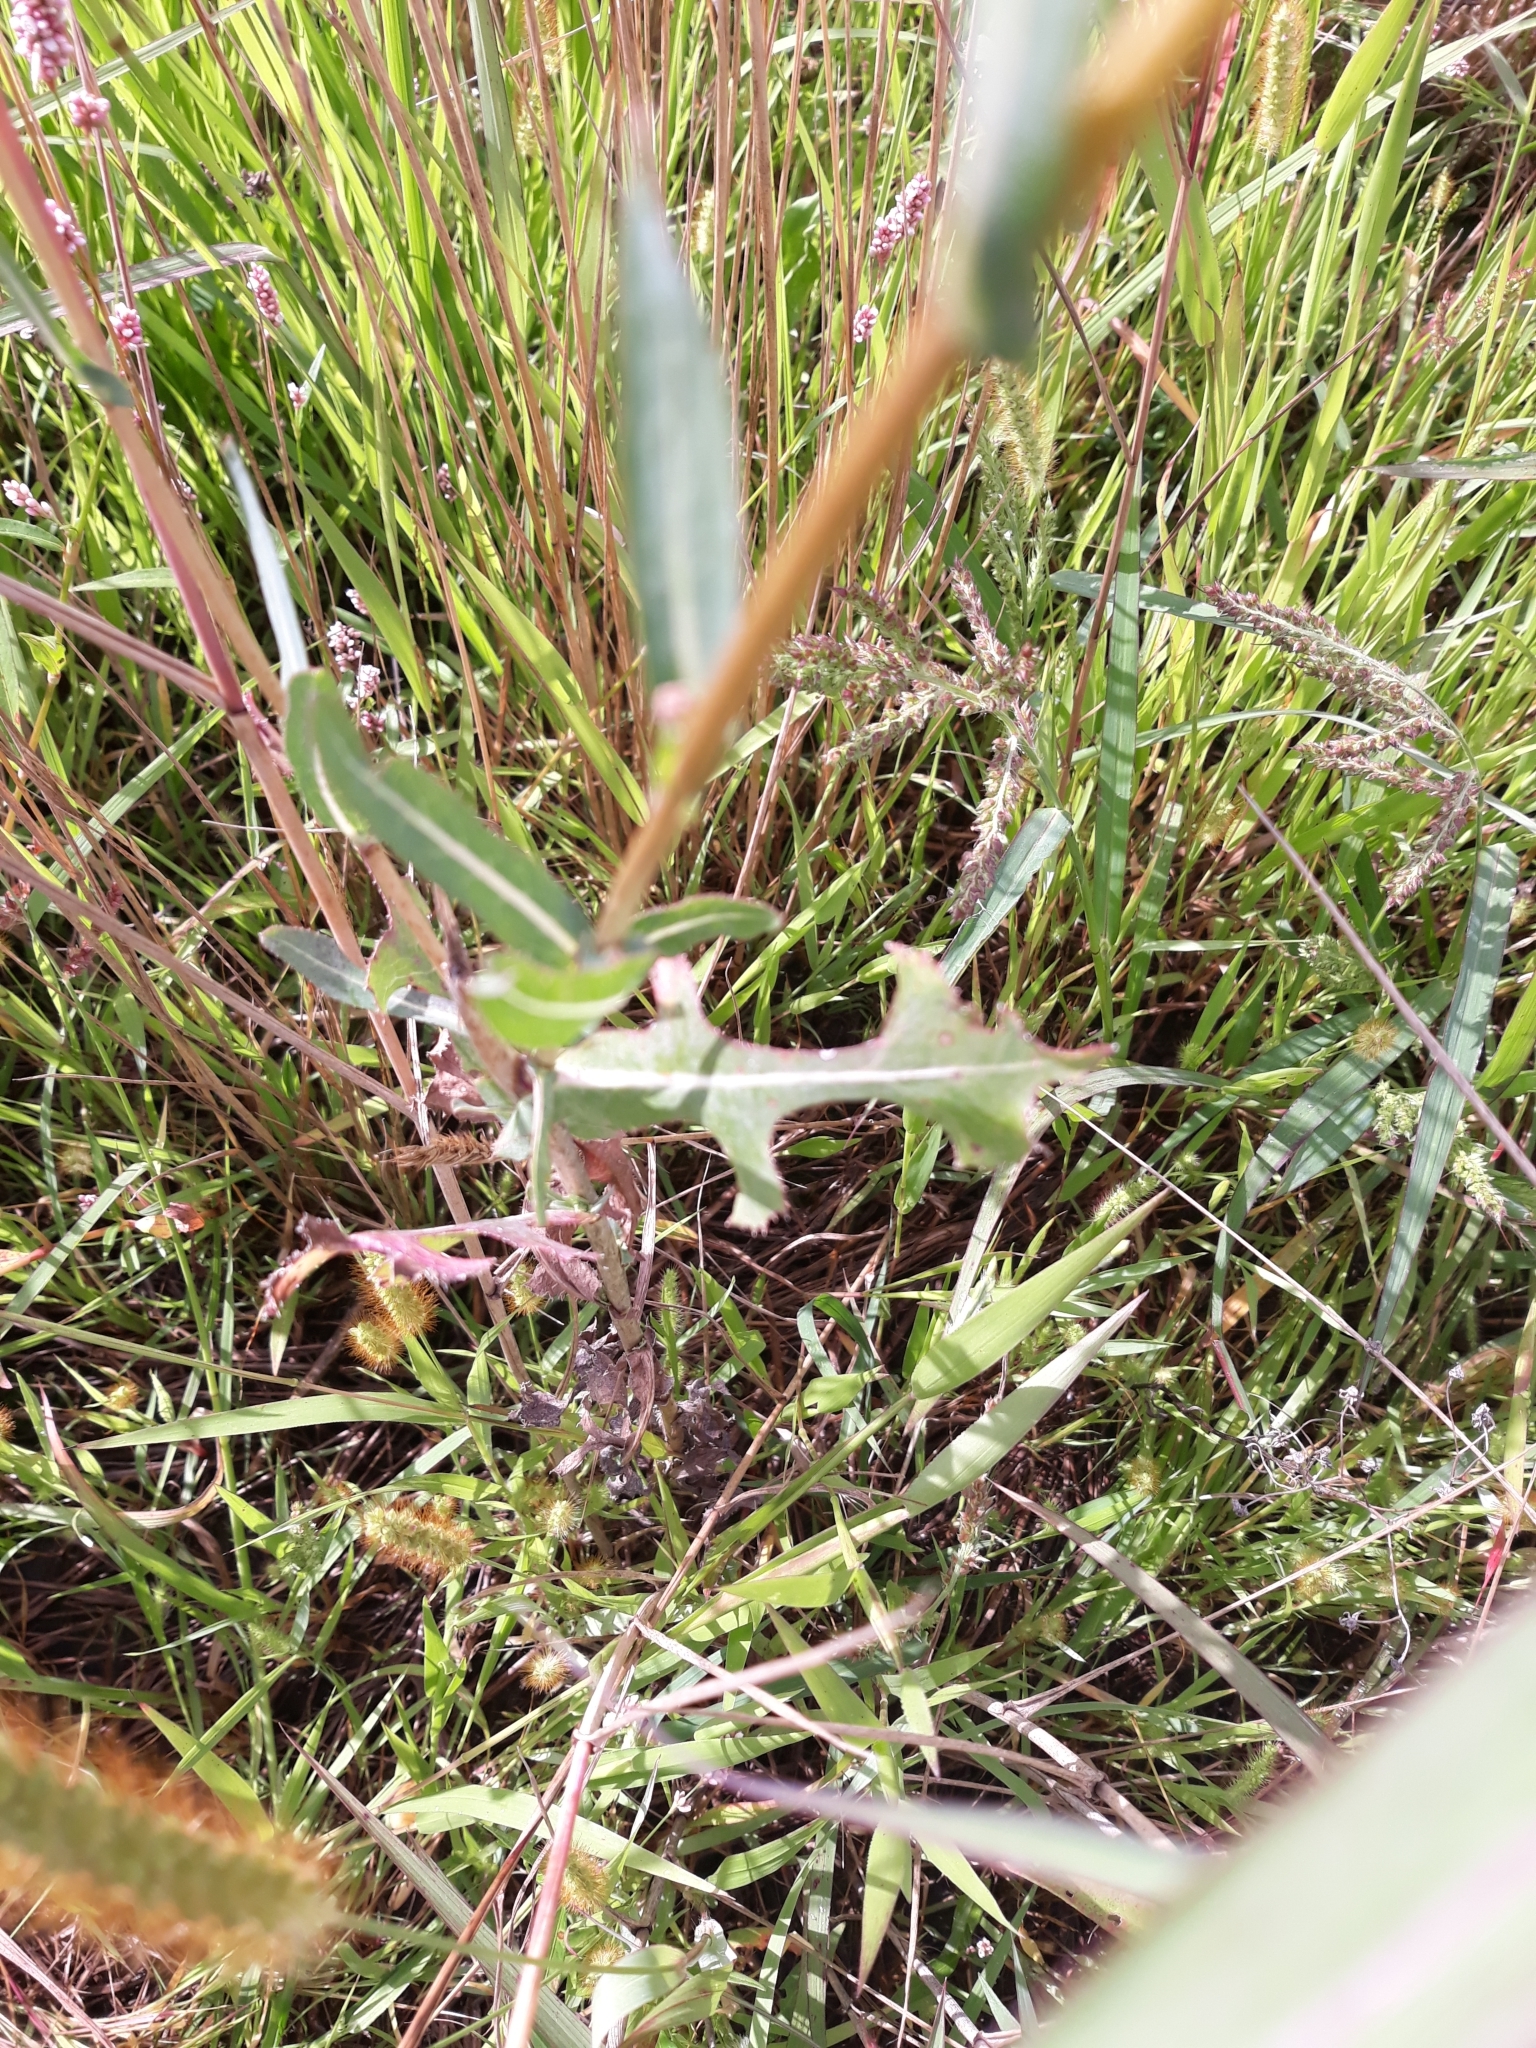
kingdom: Plantae
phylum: Tracheophyta
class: Magnoliopsida
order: Asterales
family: Asteraceae
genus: Lactuca
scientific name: Lactuca serriola
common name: Prickly lettuce
